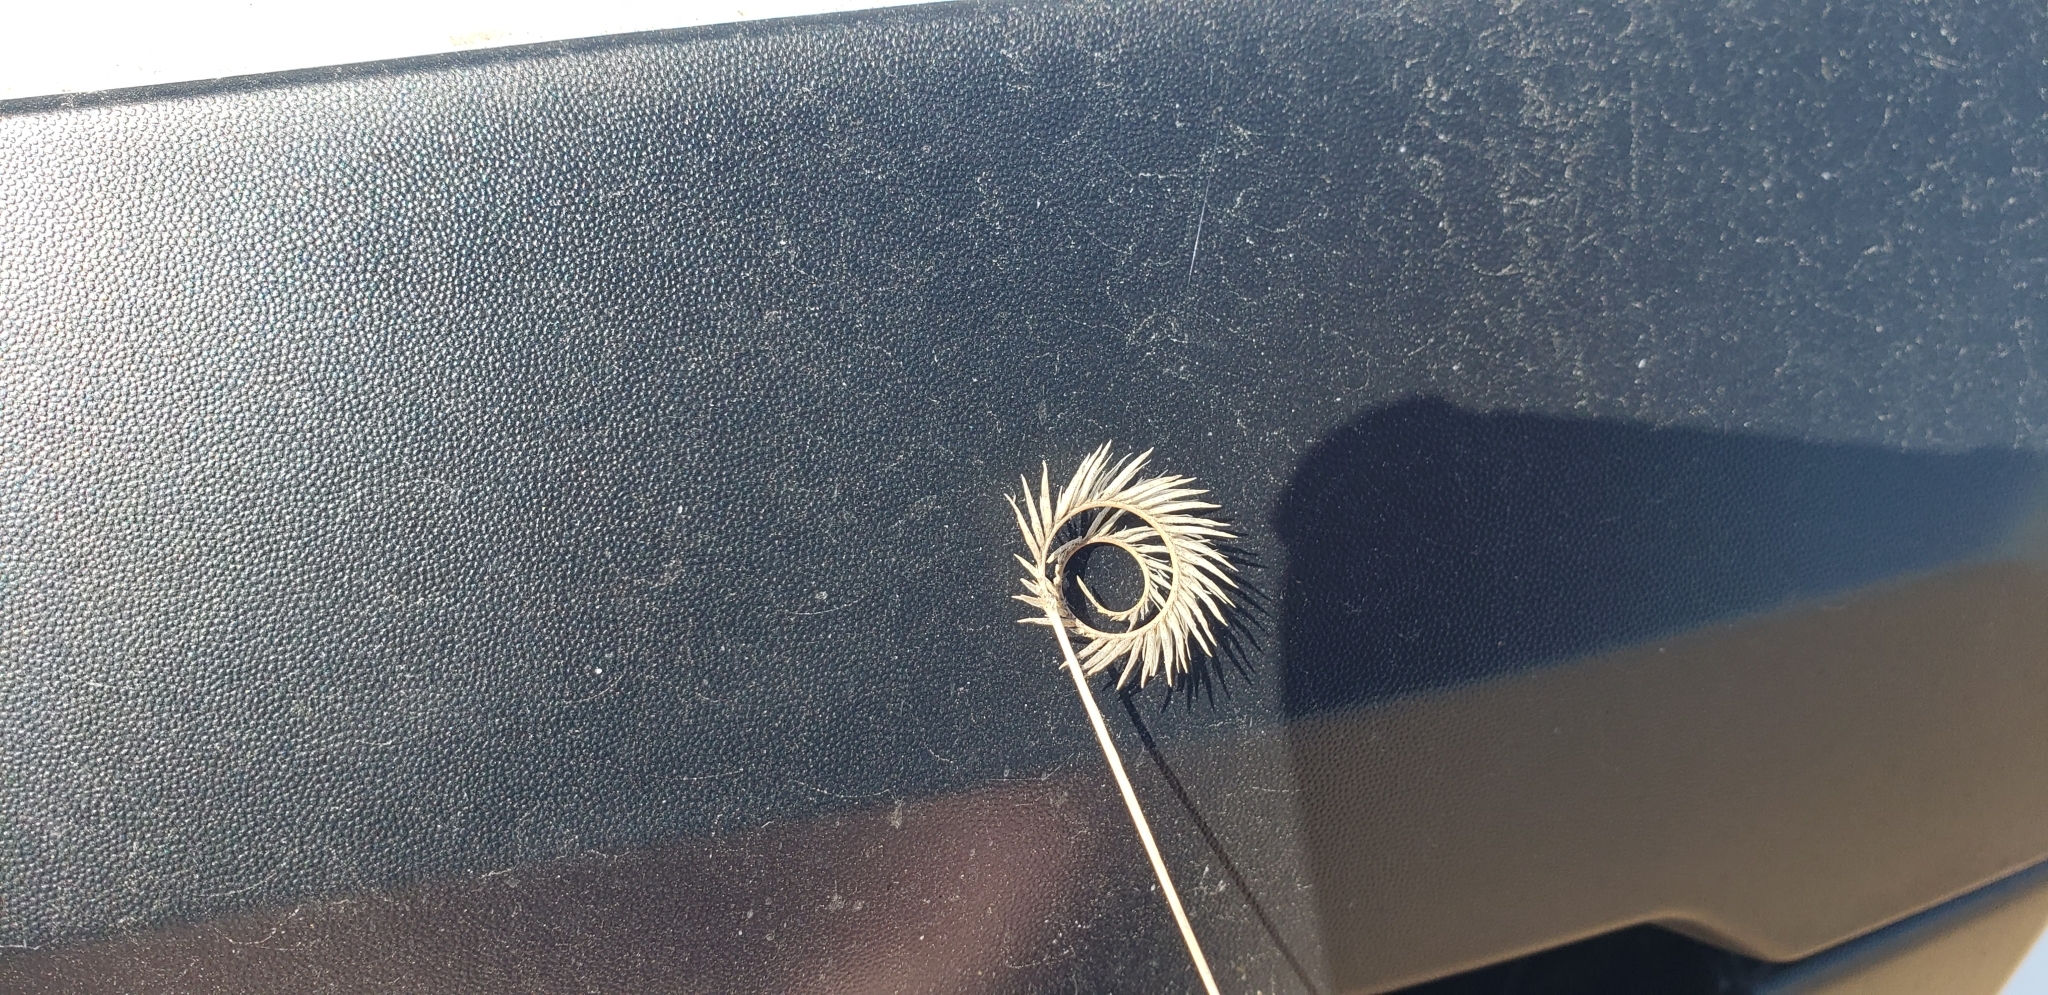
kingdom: Plantae
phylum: Tracheophyta
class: Liliopsida
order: Poales
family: Poaceae
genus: Bouteloua
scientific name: Bouteloua scorpioides
